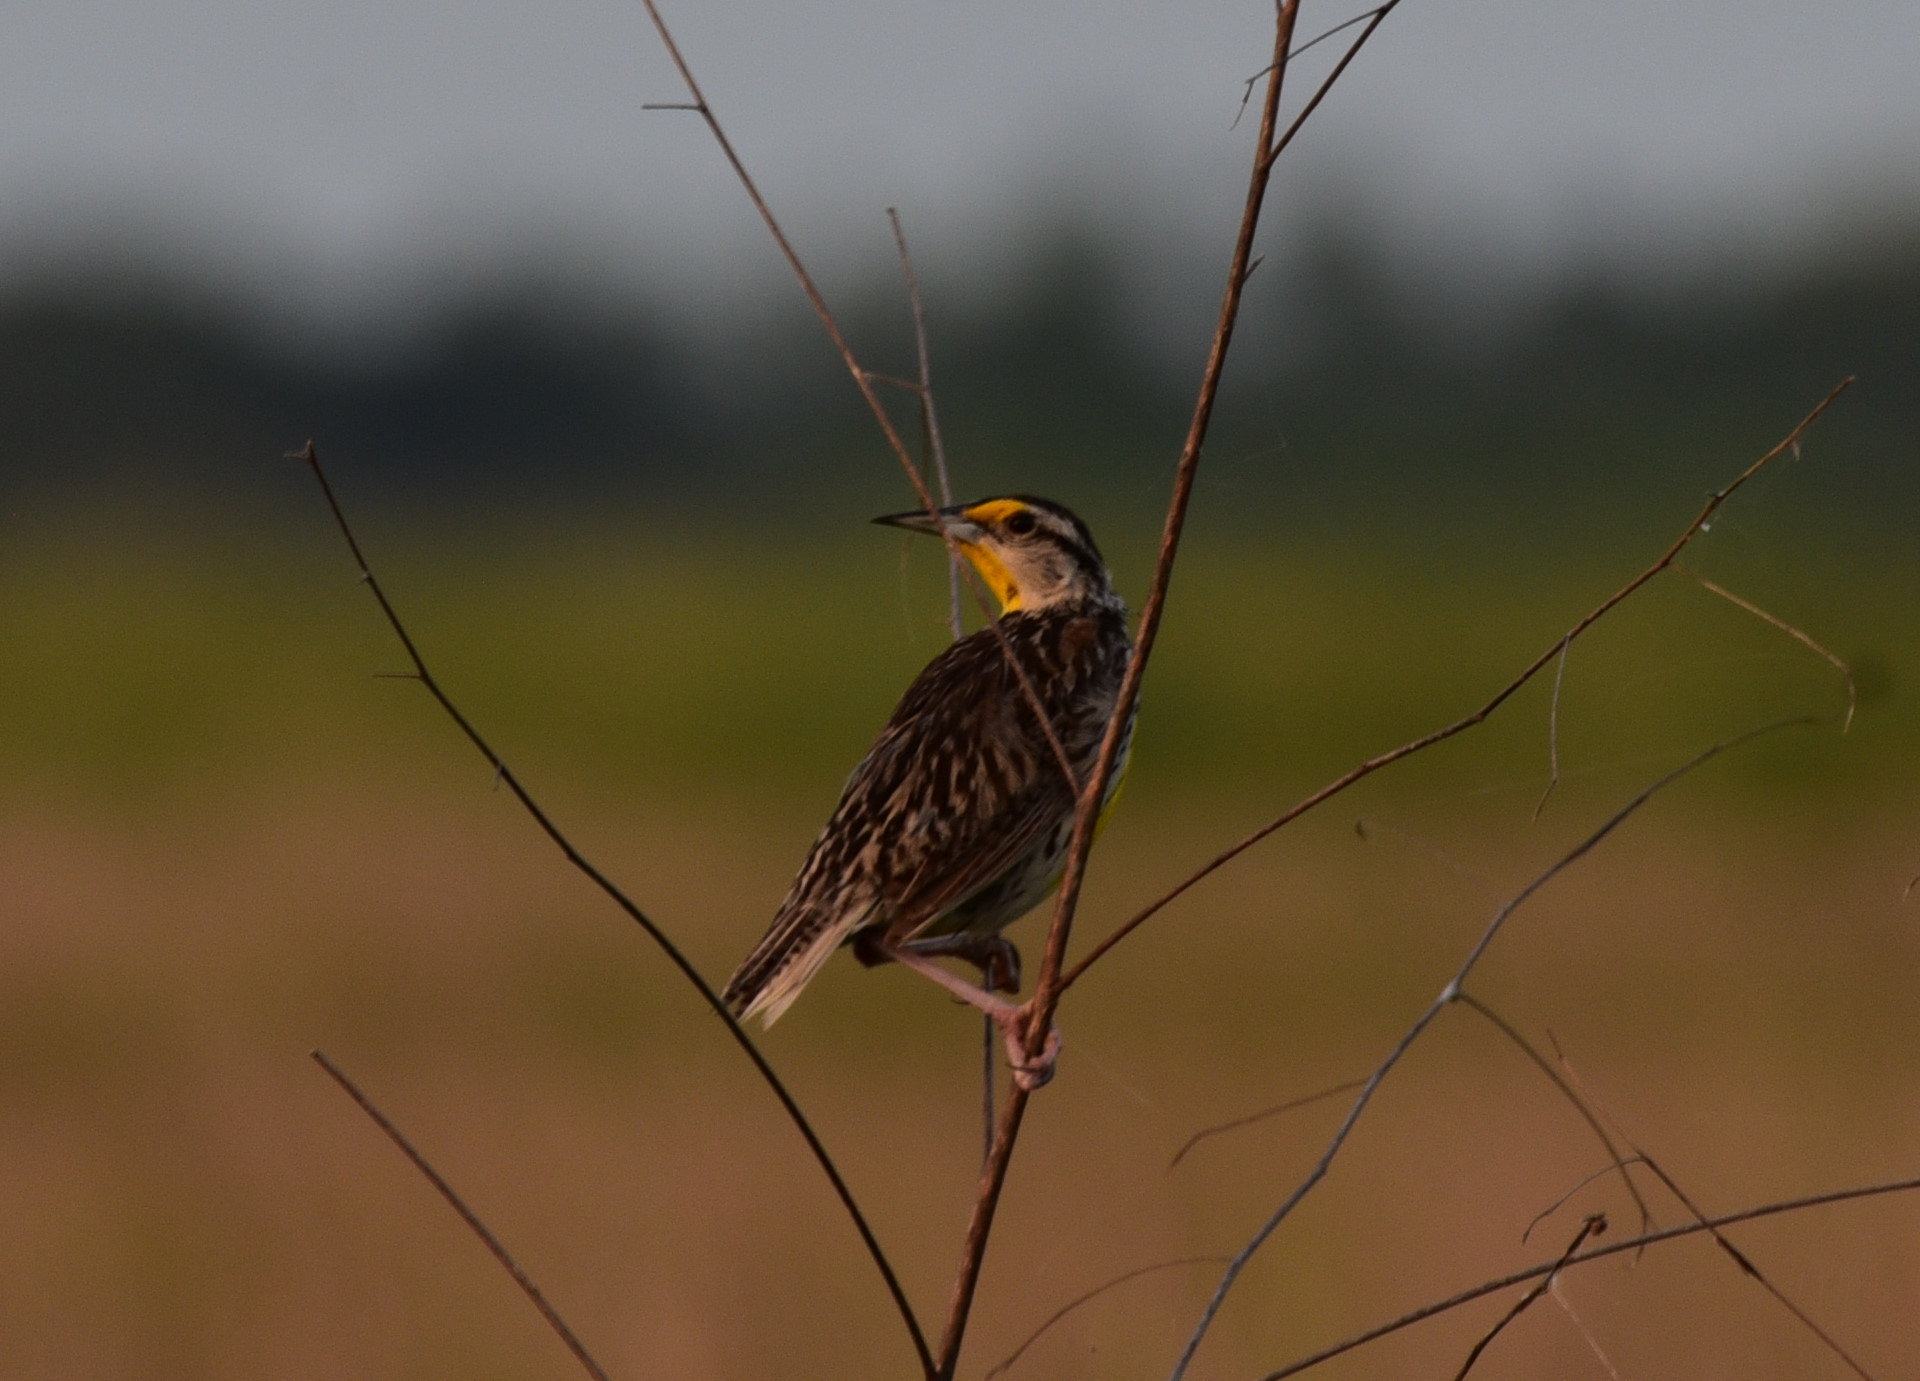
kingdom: Animalia
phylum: Chordata
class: Aves
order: Passeriformes
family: Icteridae
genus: Sturnella
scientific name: Sturnella magna
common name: Eastern meadowlark
